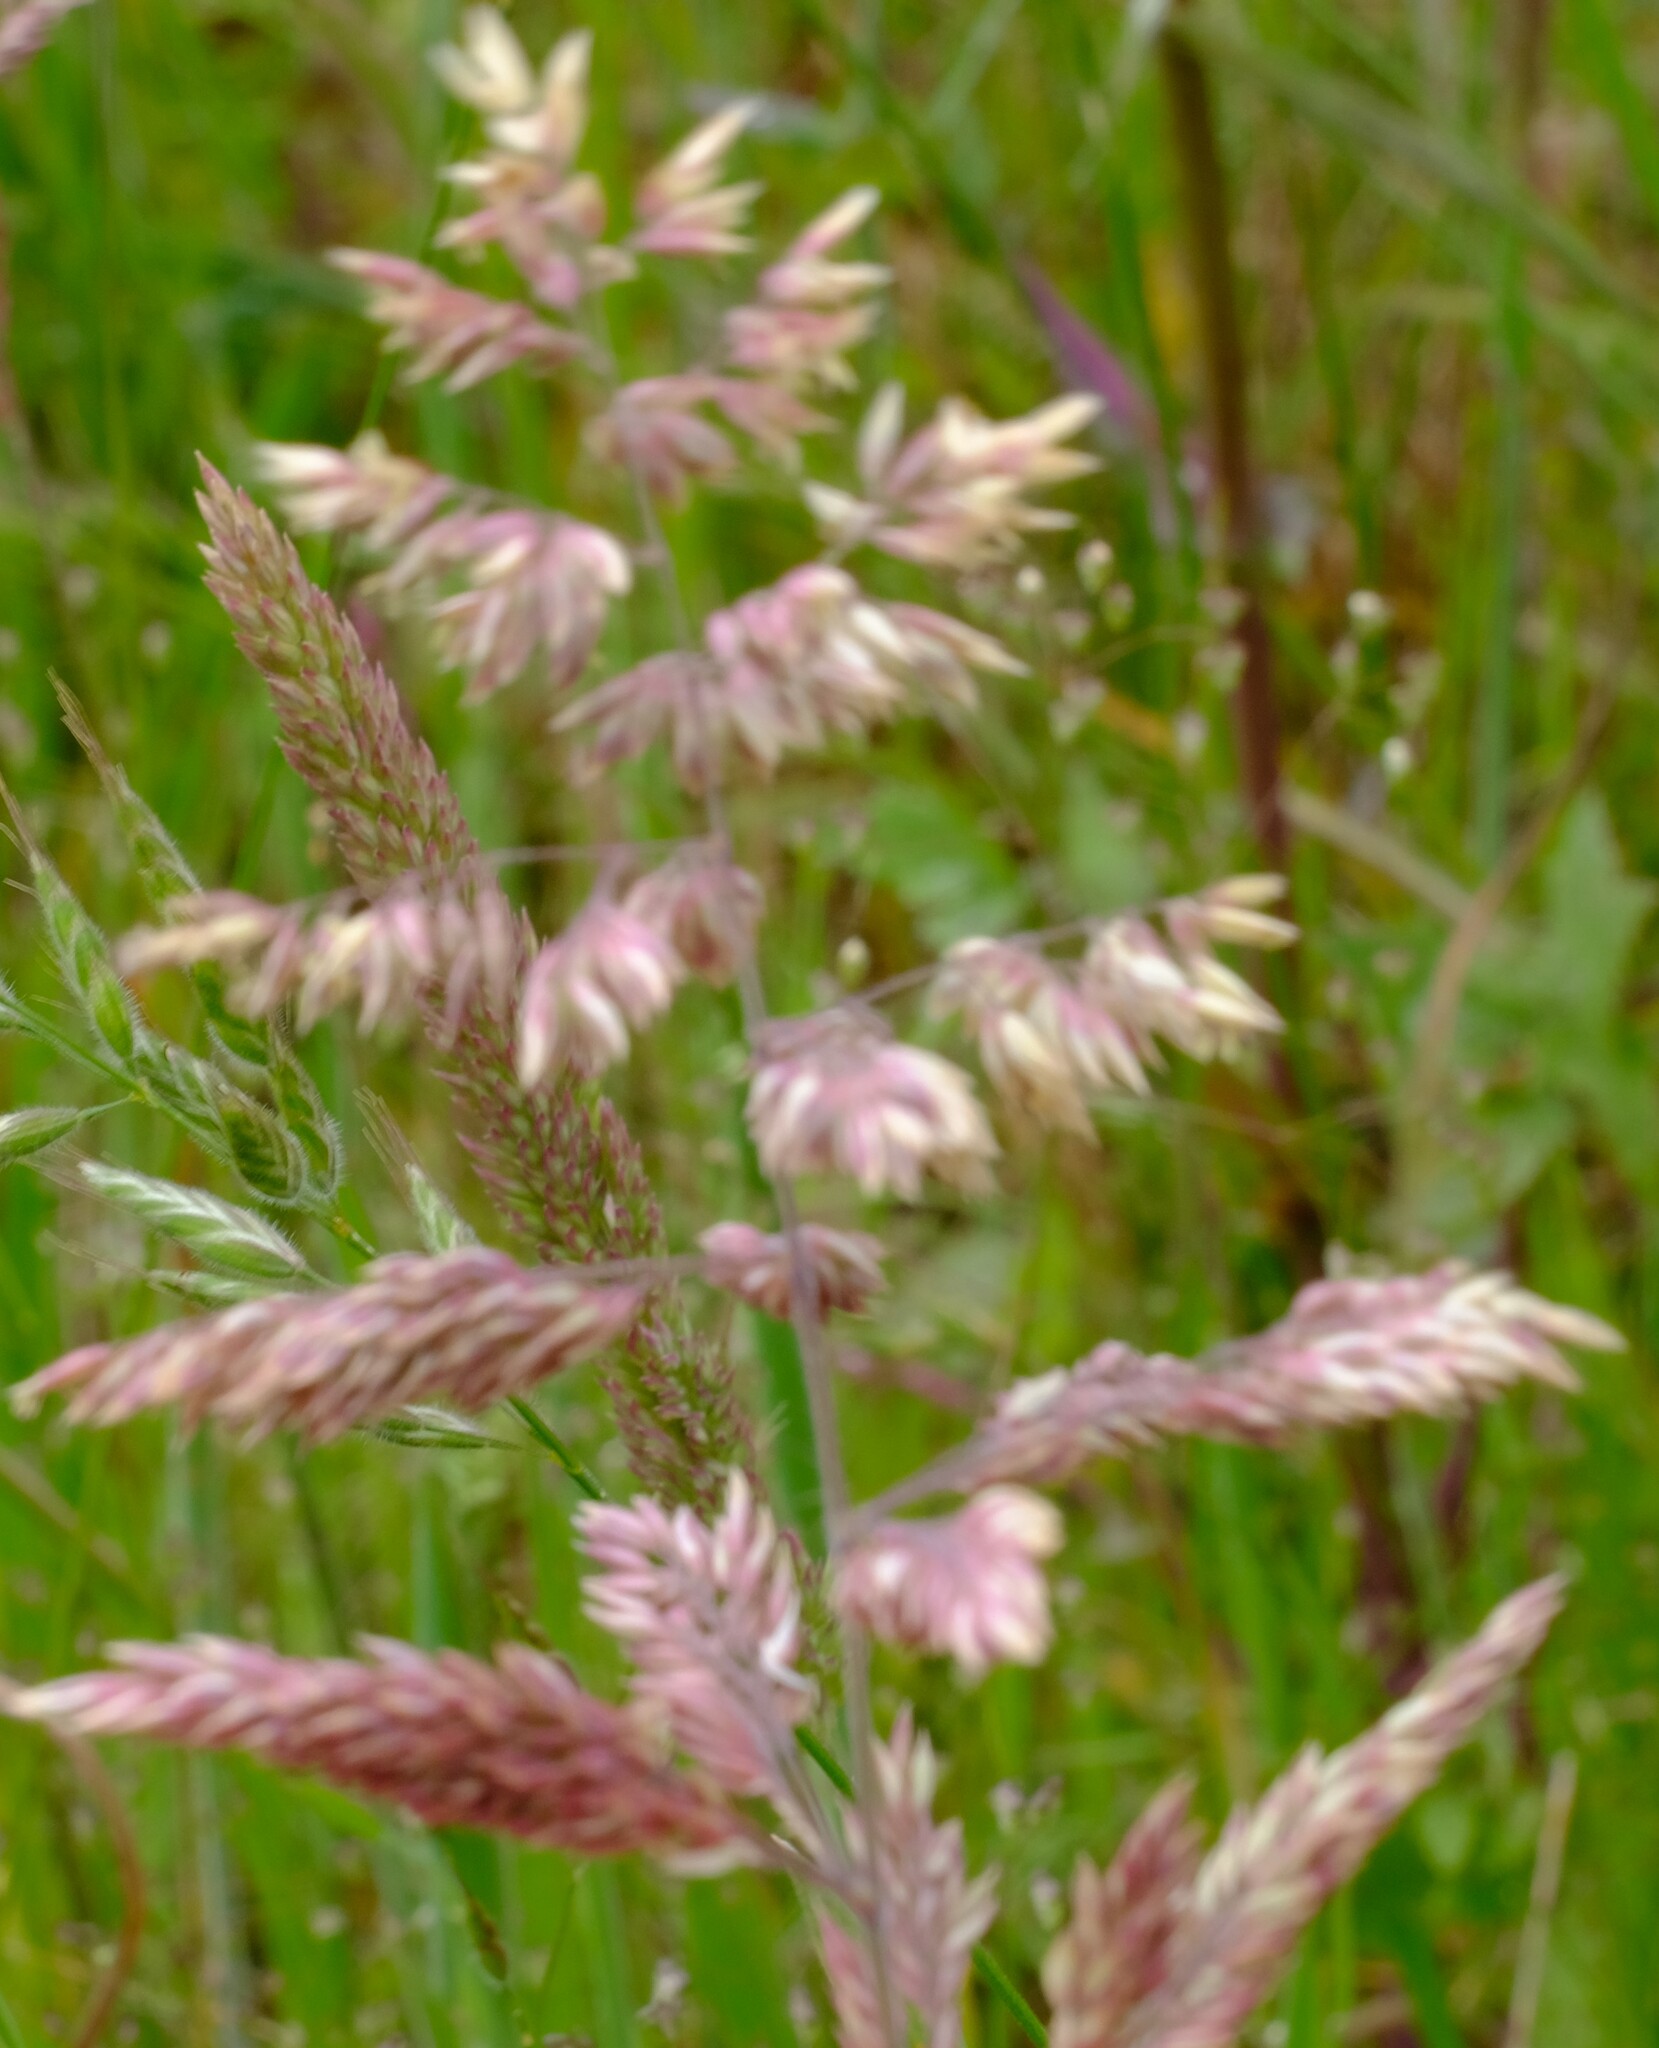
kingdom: Plantae
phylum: Tracheophyta
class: Liliopsida
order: Poales
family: Poaceae
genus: Holcus
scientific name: Holcus lanatus
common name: Yorkshire-fog
